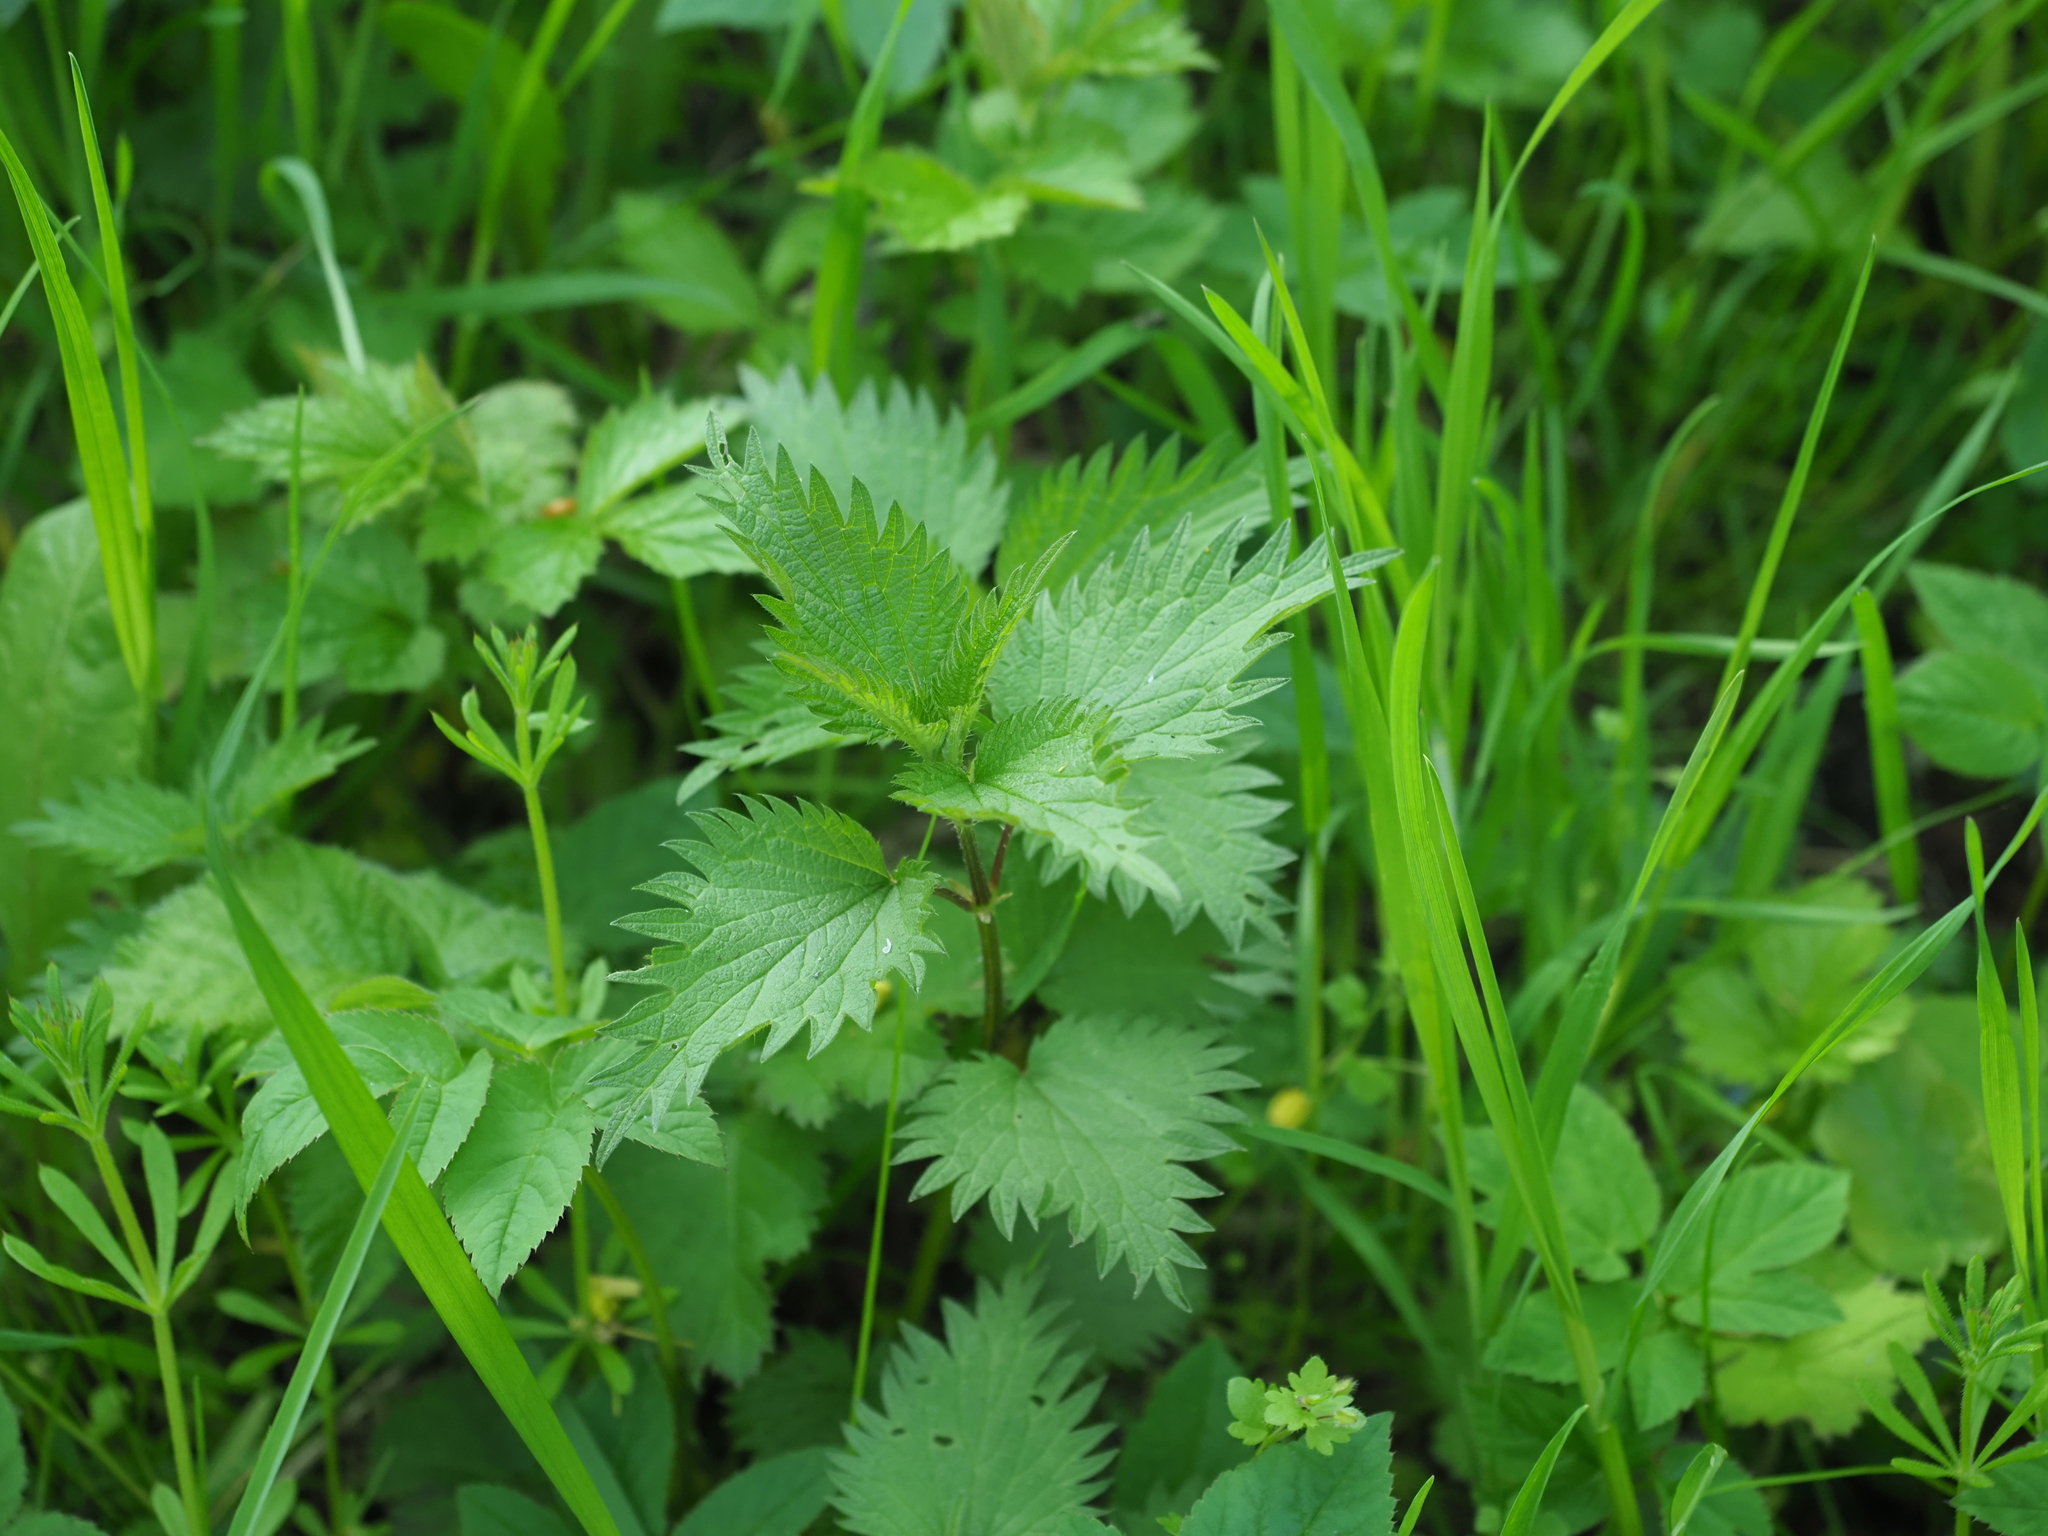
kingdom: Plantae
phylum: Tracheophyta
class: Magnoliopsida
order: Rosales
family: Urticaceae
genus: Urtica
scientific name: Urtica dioica
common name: Common nettle
